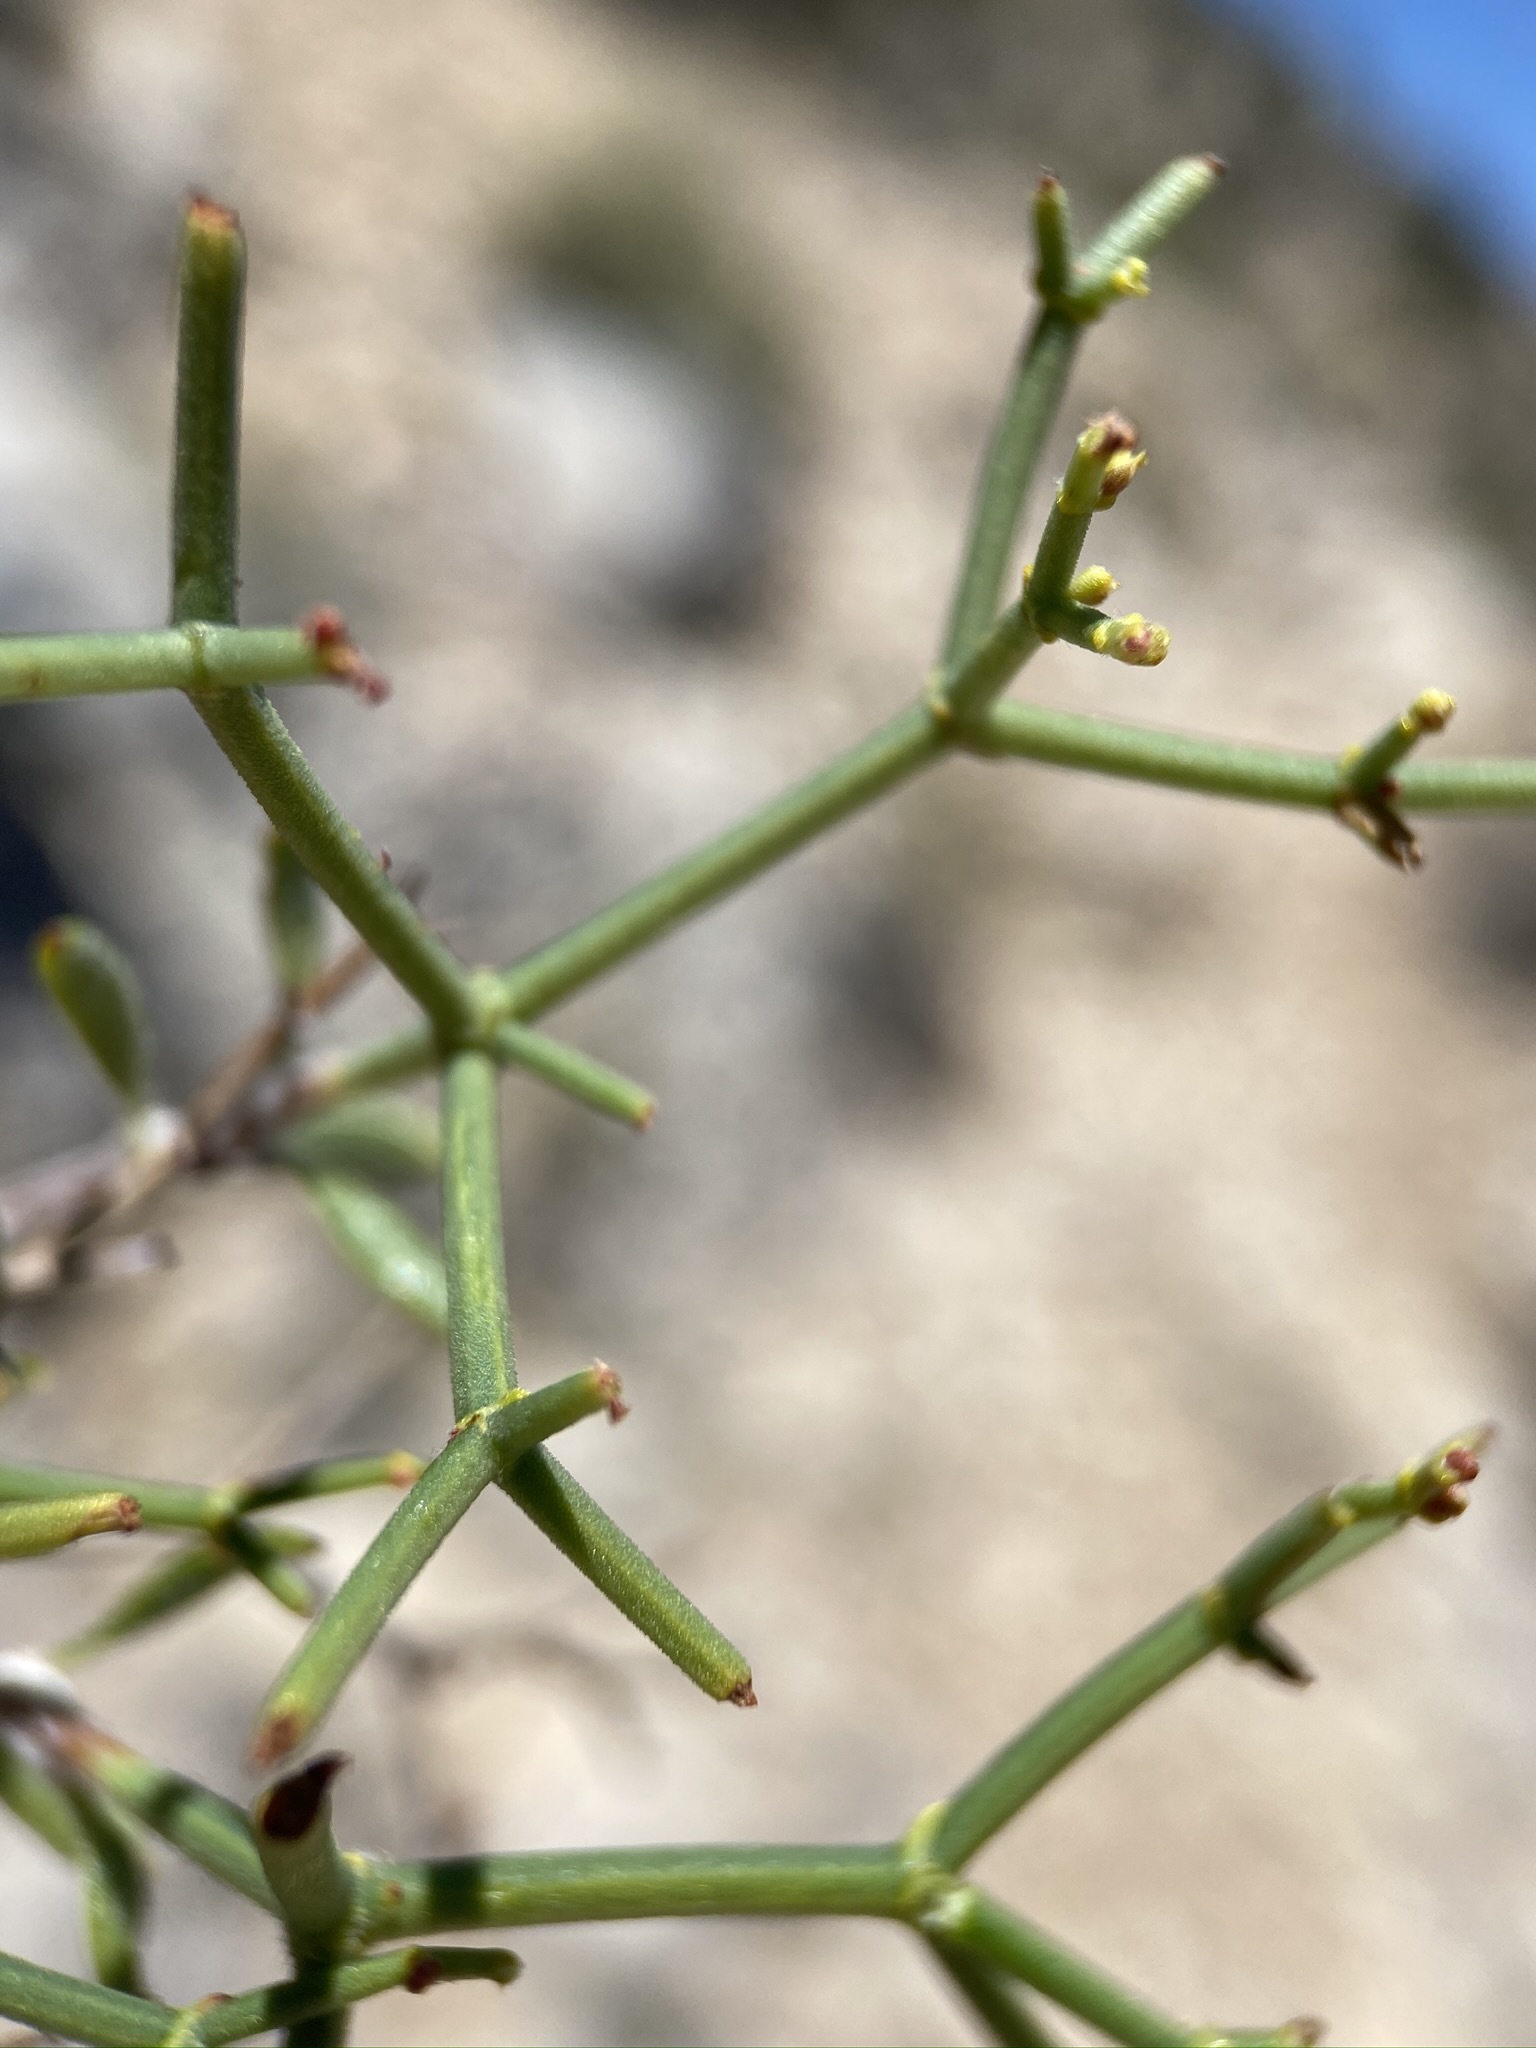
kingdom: Plantae
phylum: Tracheophyta
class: Magnoliopsida
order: Caryophyllales
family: Polygonaceae
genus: Eriogonum
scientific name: Eriogonum heermannii
